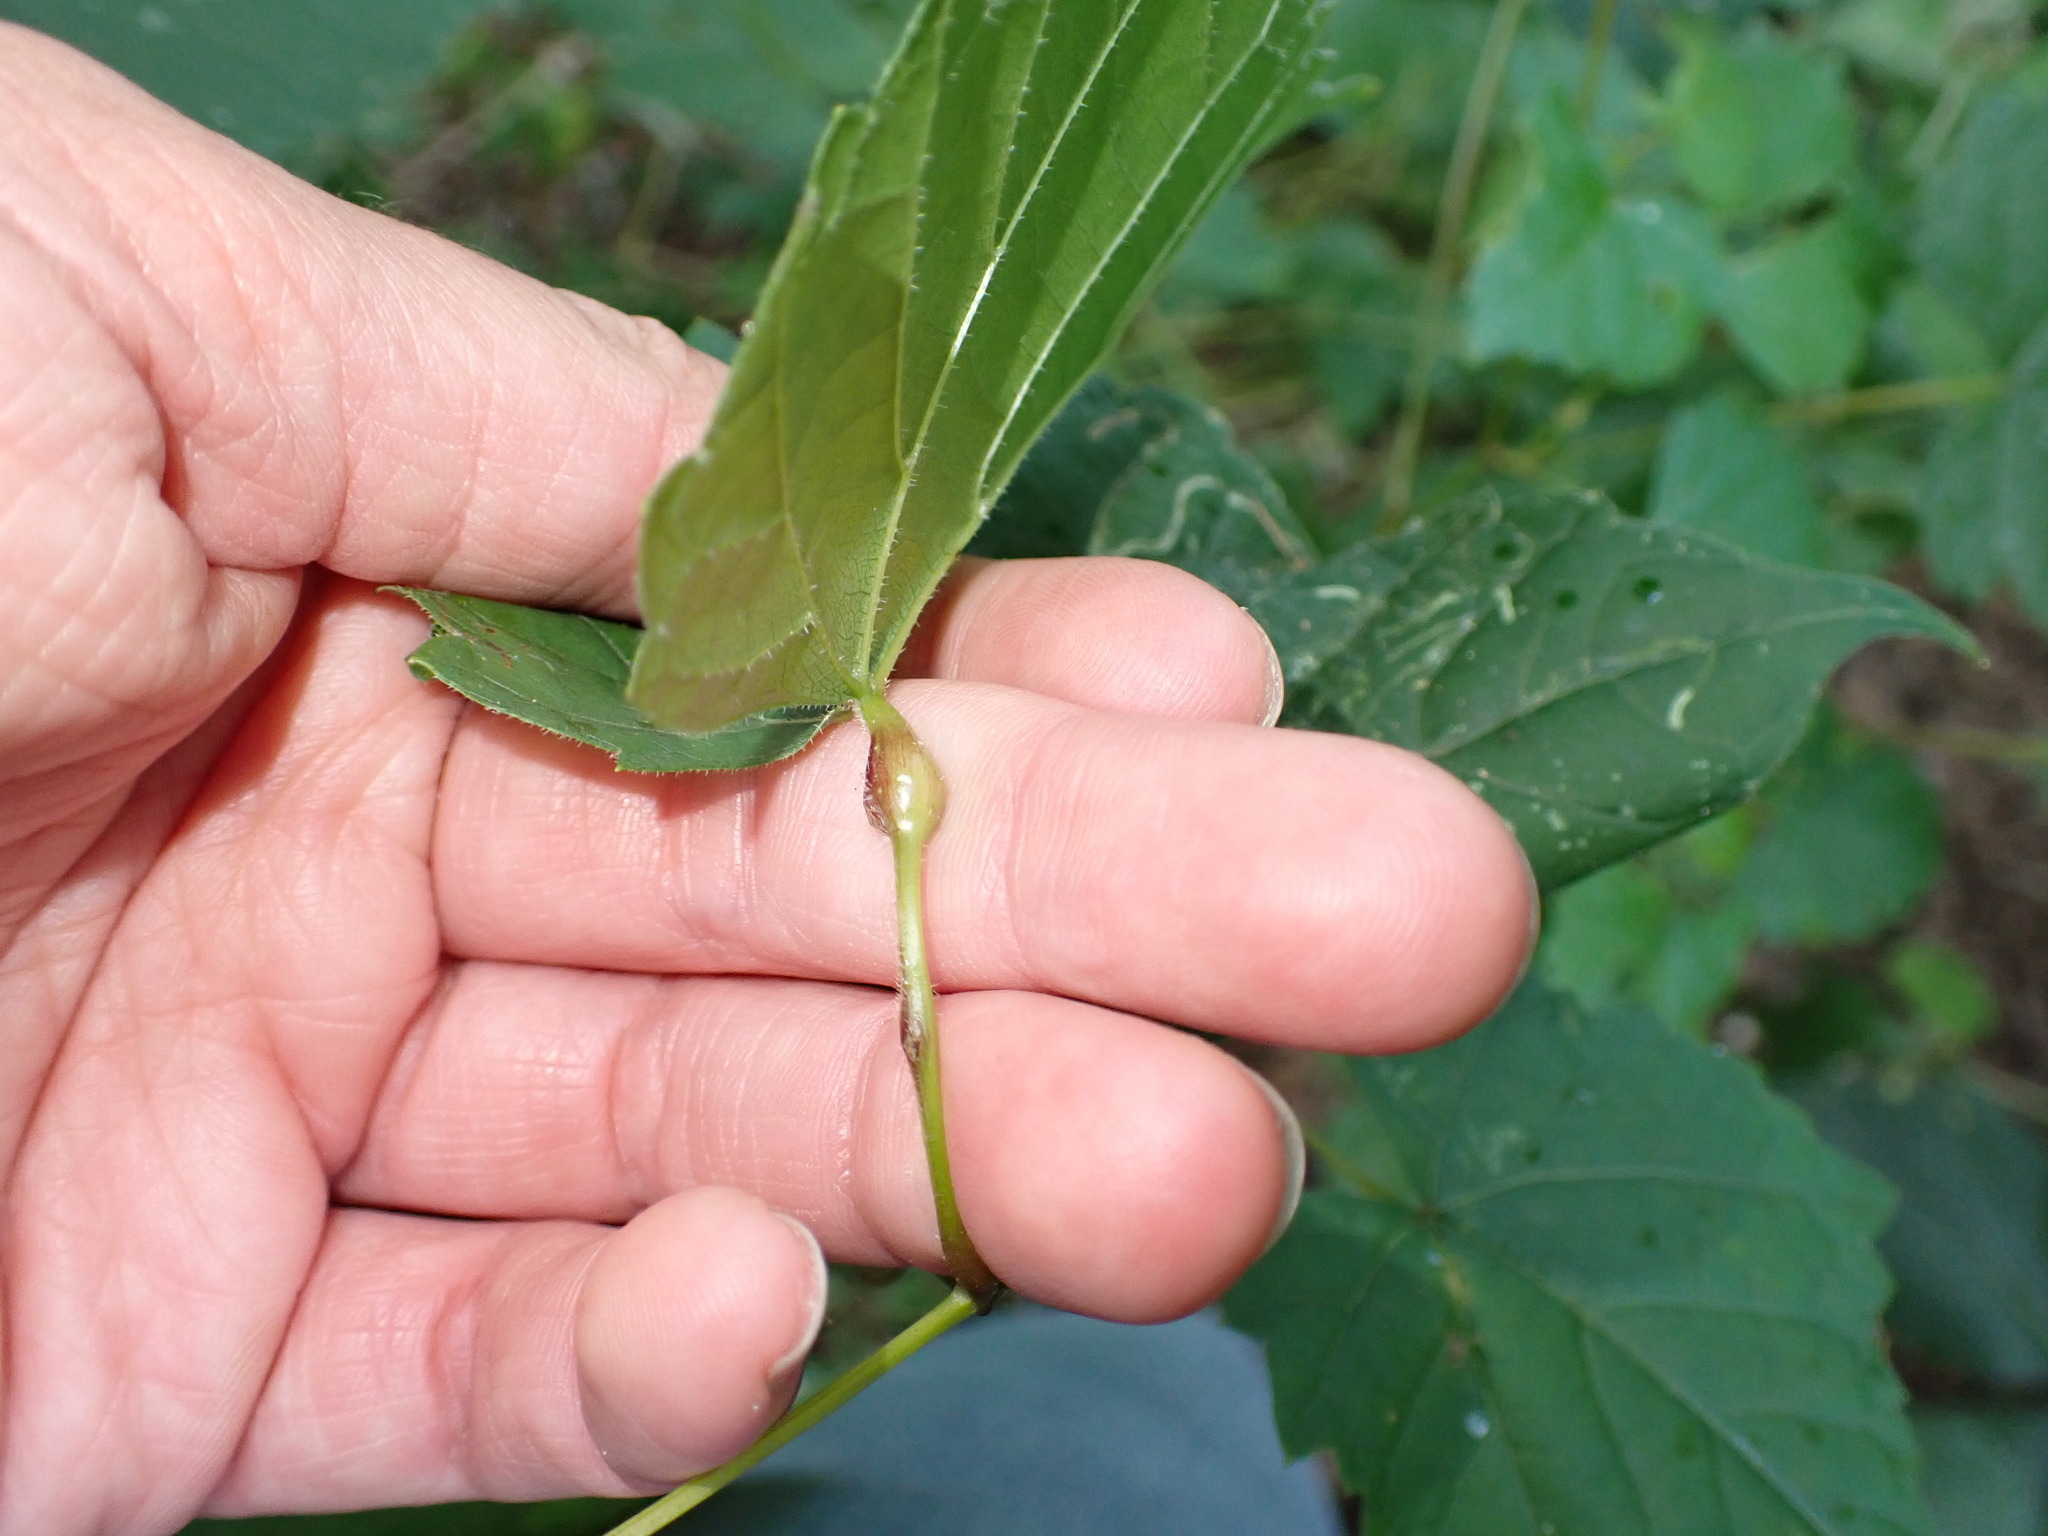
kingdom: Animalia
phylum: Arthropoda
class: Insecta
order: Diptera
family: Cecidomyiidae
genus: Neolasioptera
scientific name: Neolasioptera vitinea
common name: Grape leaf petiole gall
